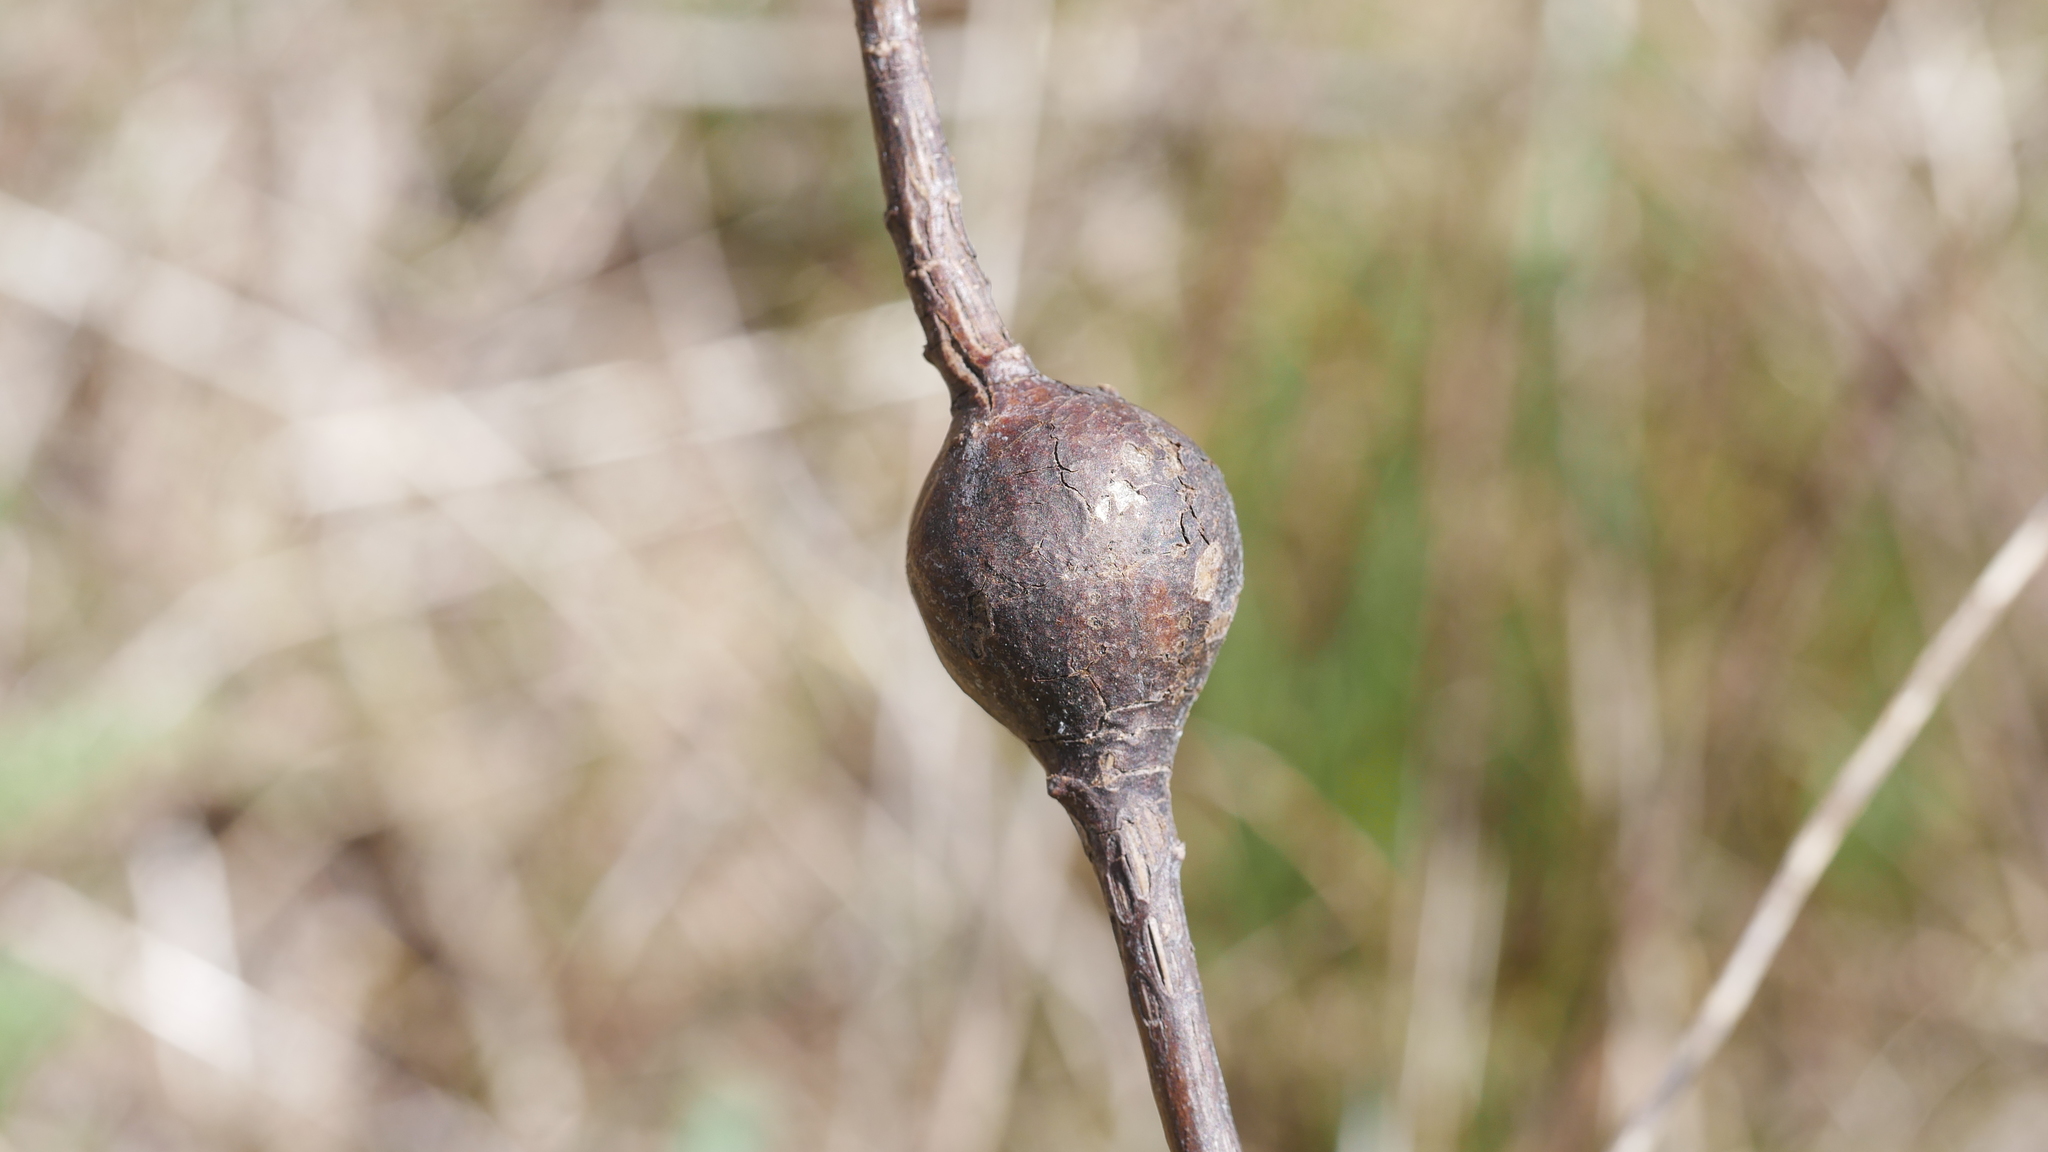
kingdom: Animalia
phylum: Arthropoda
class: Insecta
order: Diptera
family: Tephritidae
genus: Eurosta
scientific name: Eurosta solidaginis
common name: Goldenrod gall fly
